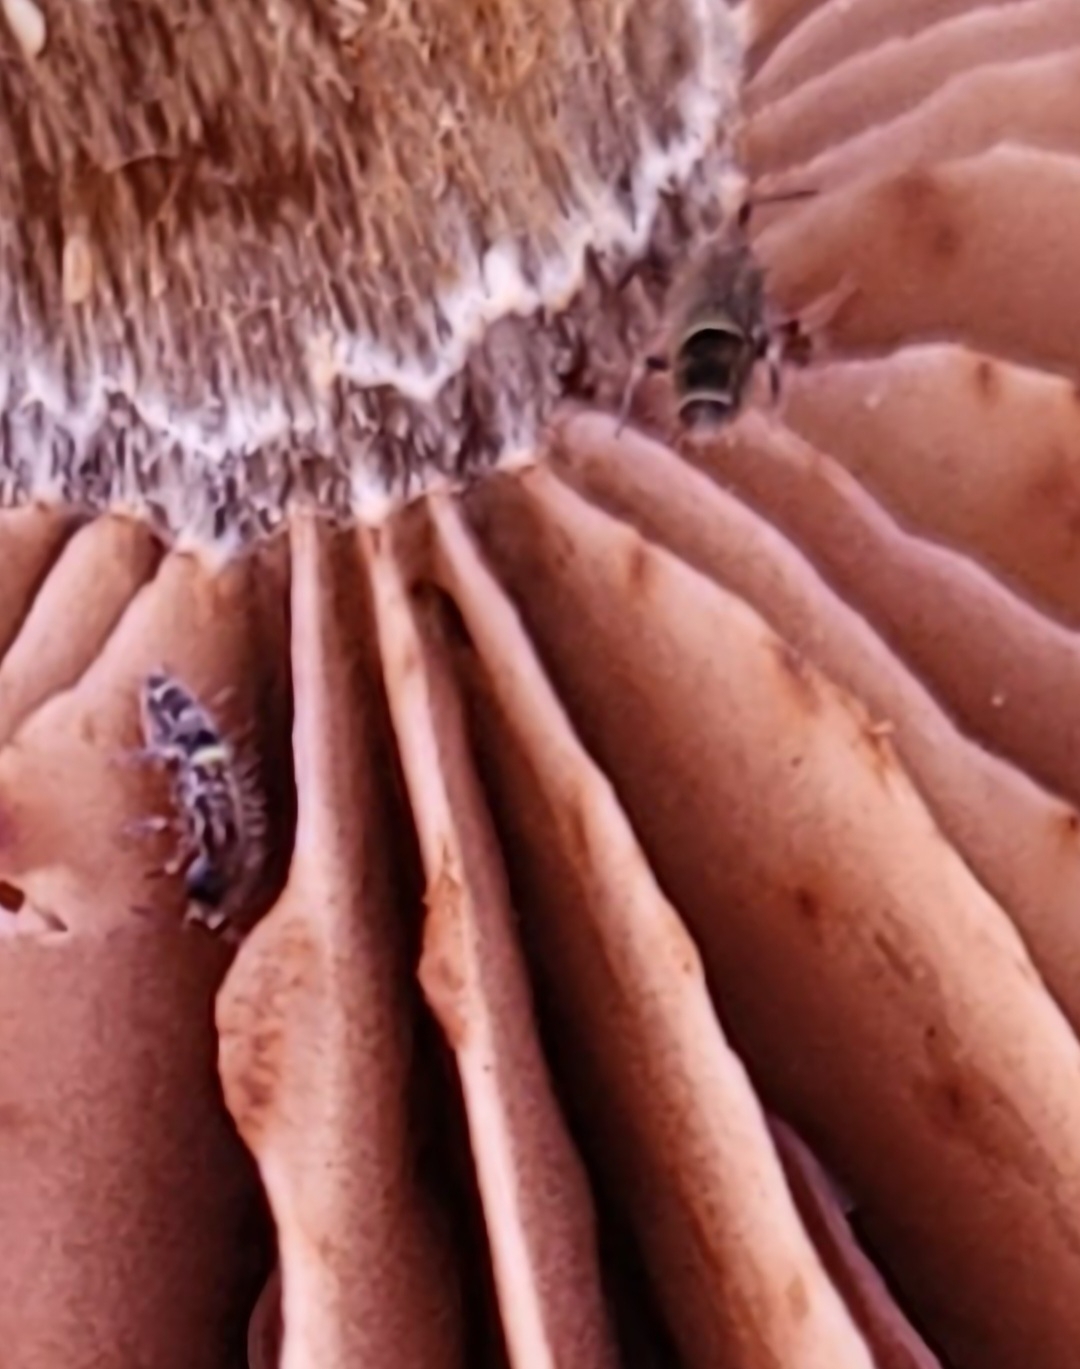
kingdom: Animalia
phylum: Arthropoda
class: Collembola
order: Entomobryomorpha
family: Orchesellidae
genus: Orchesella
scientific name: Orchesella cincta
